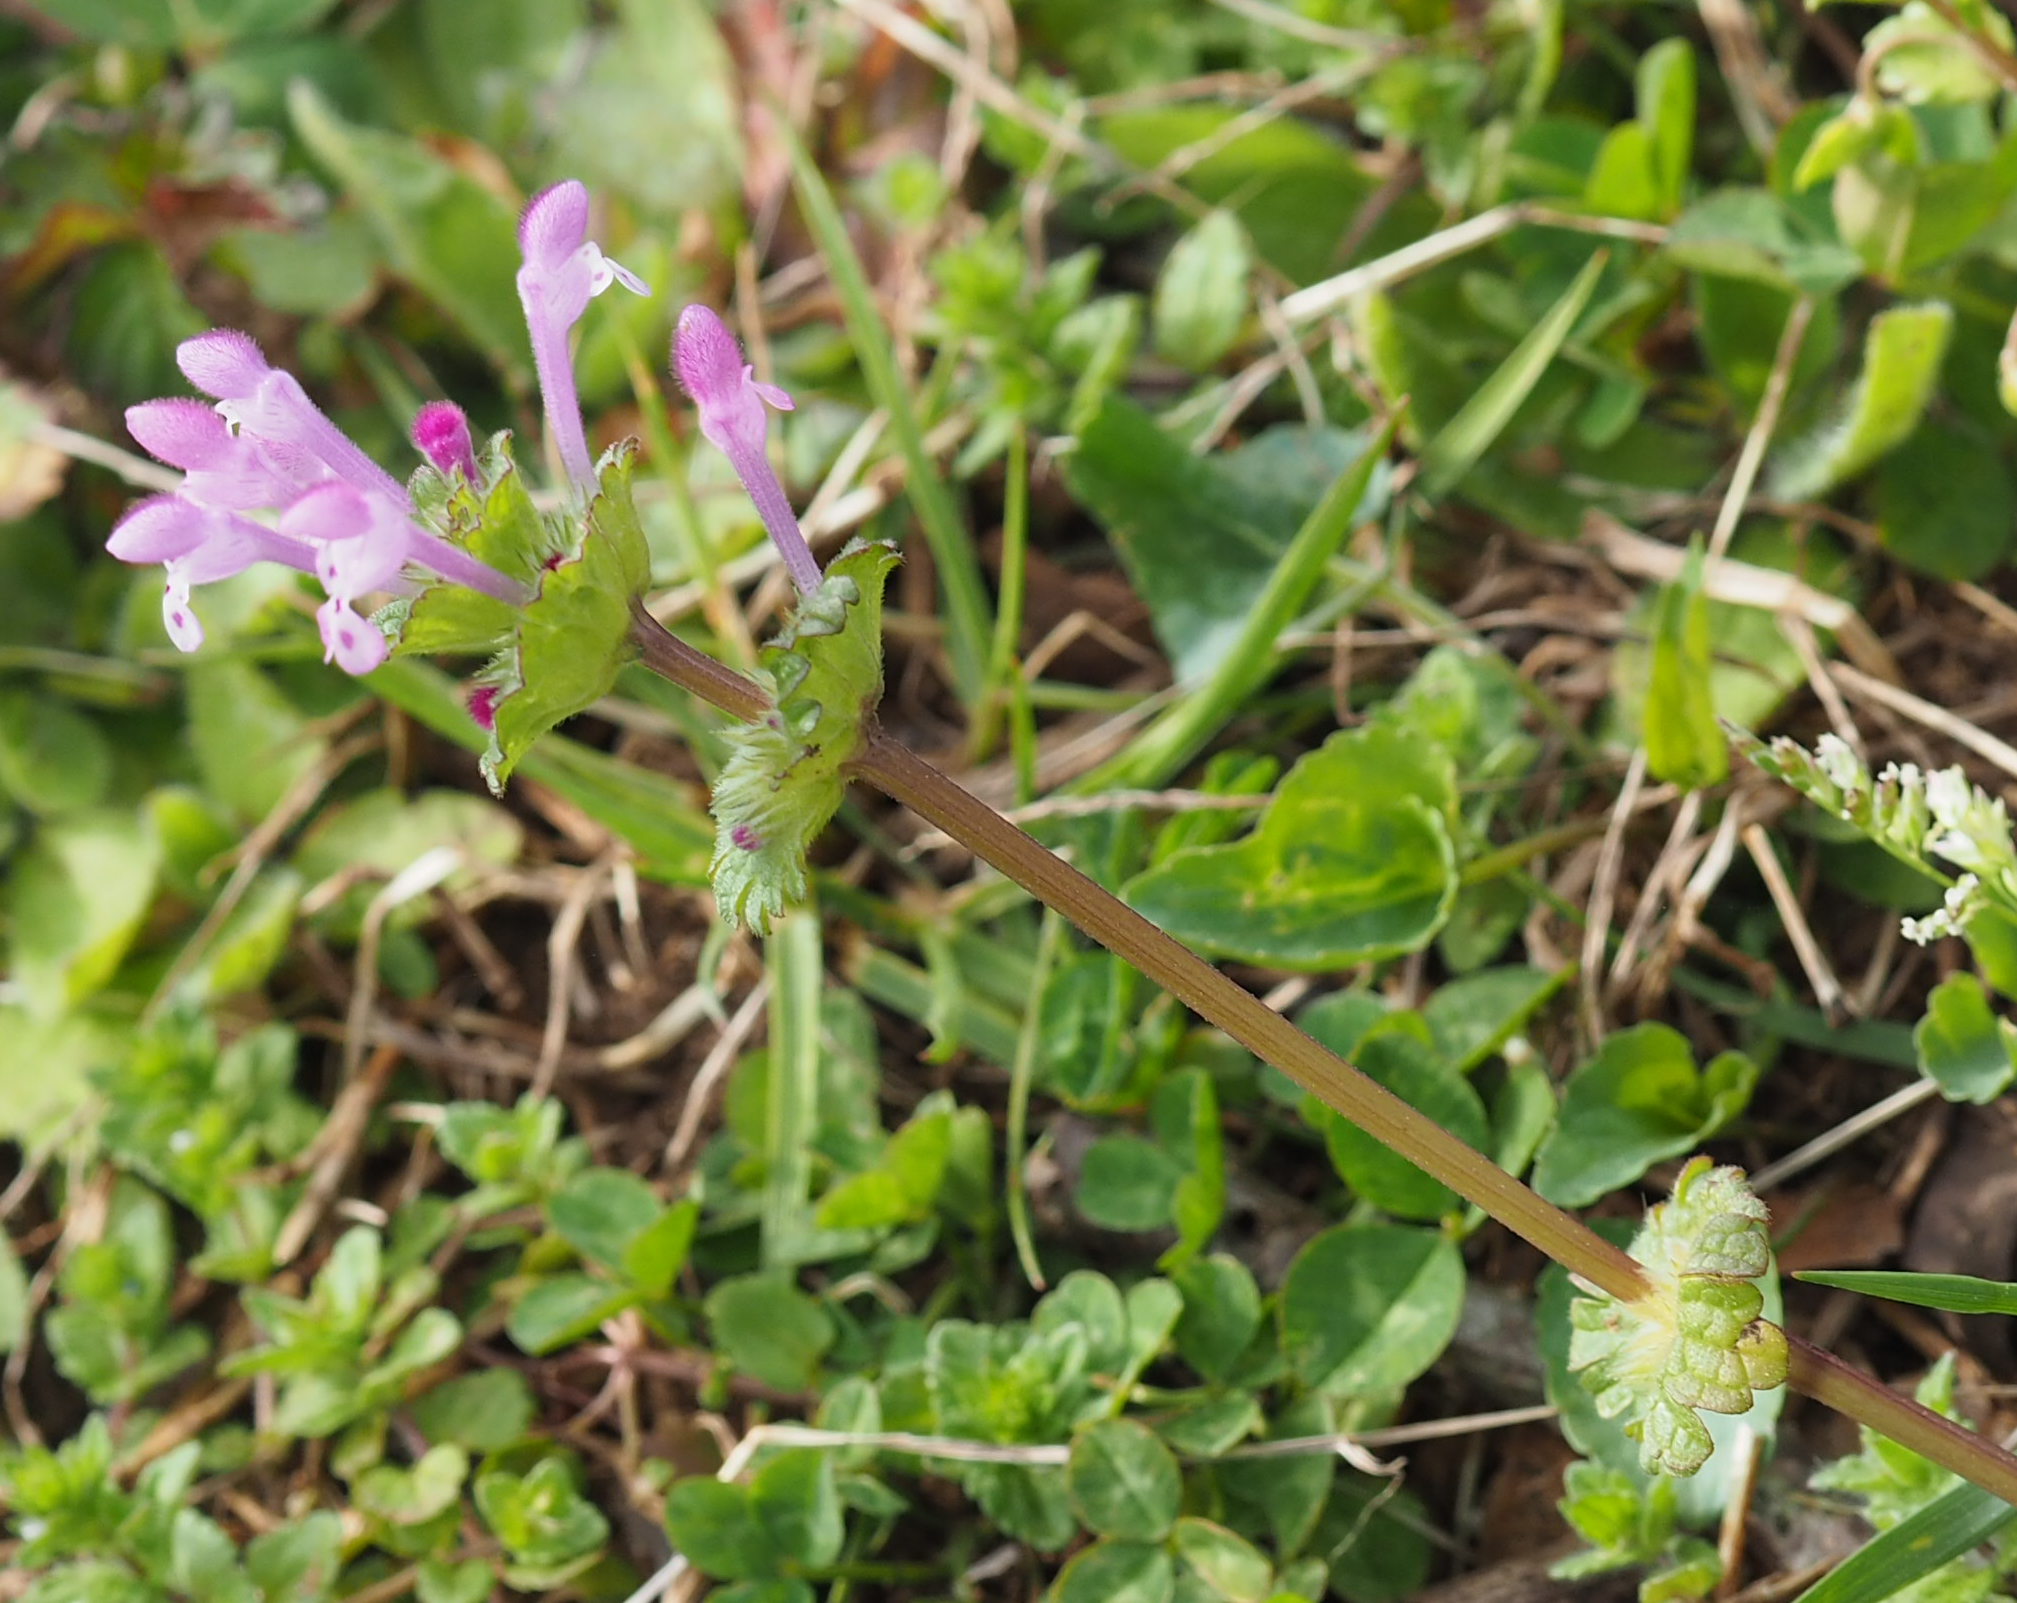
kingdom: Plantae
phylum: Tracheophyta
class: Magnoliopsida
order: Lamiales
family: Lamiaceae
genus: Lamium
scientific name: Lamium amplexicaule
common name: Henbit dead-nettle
